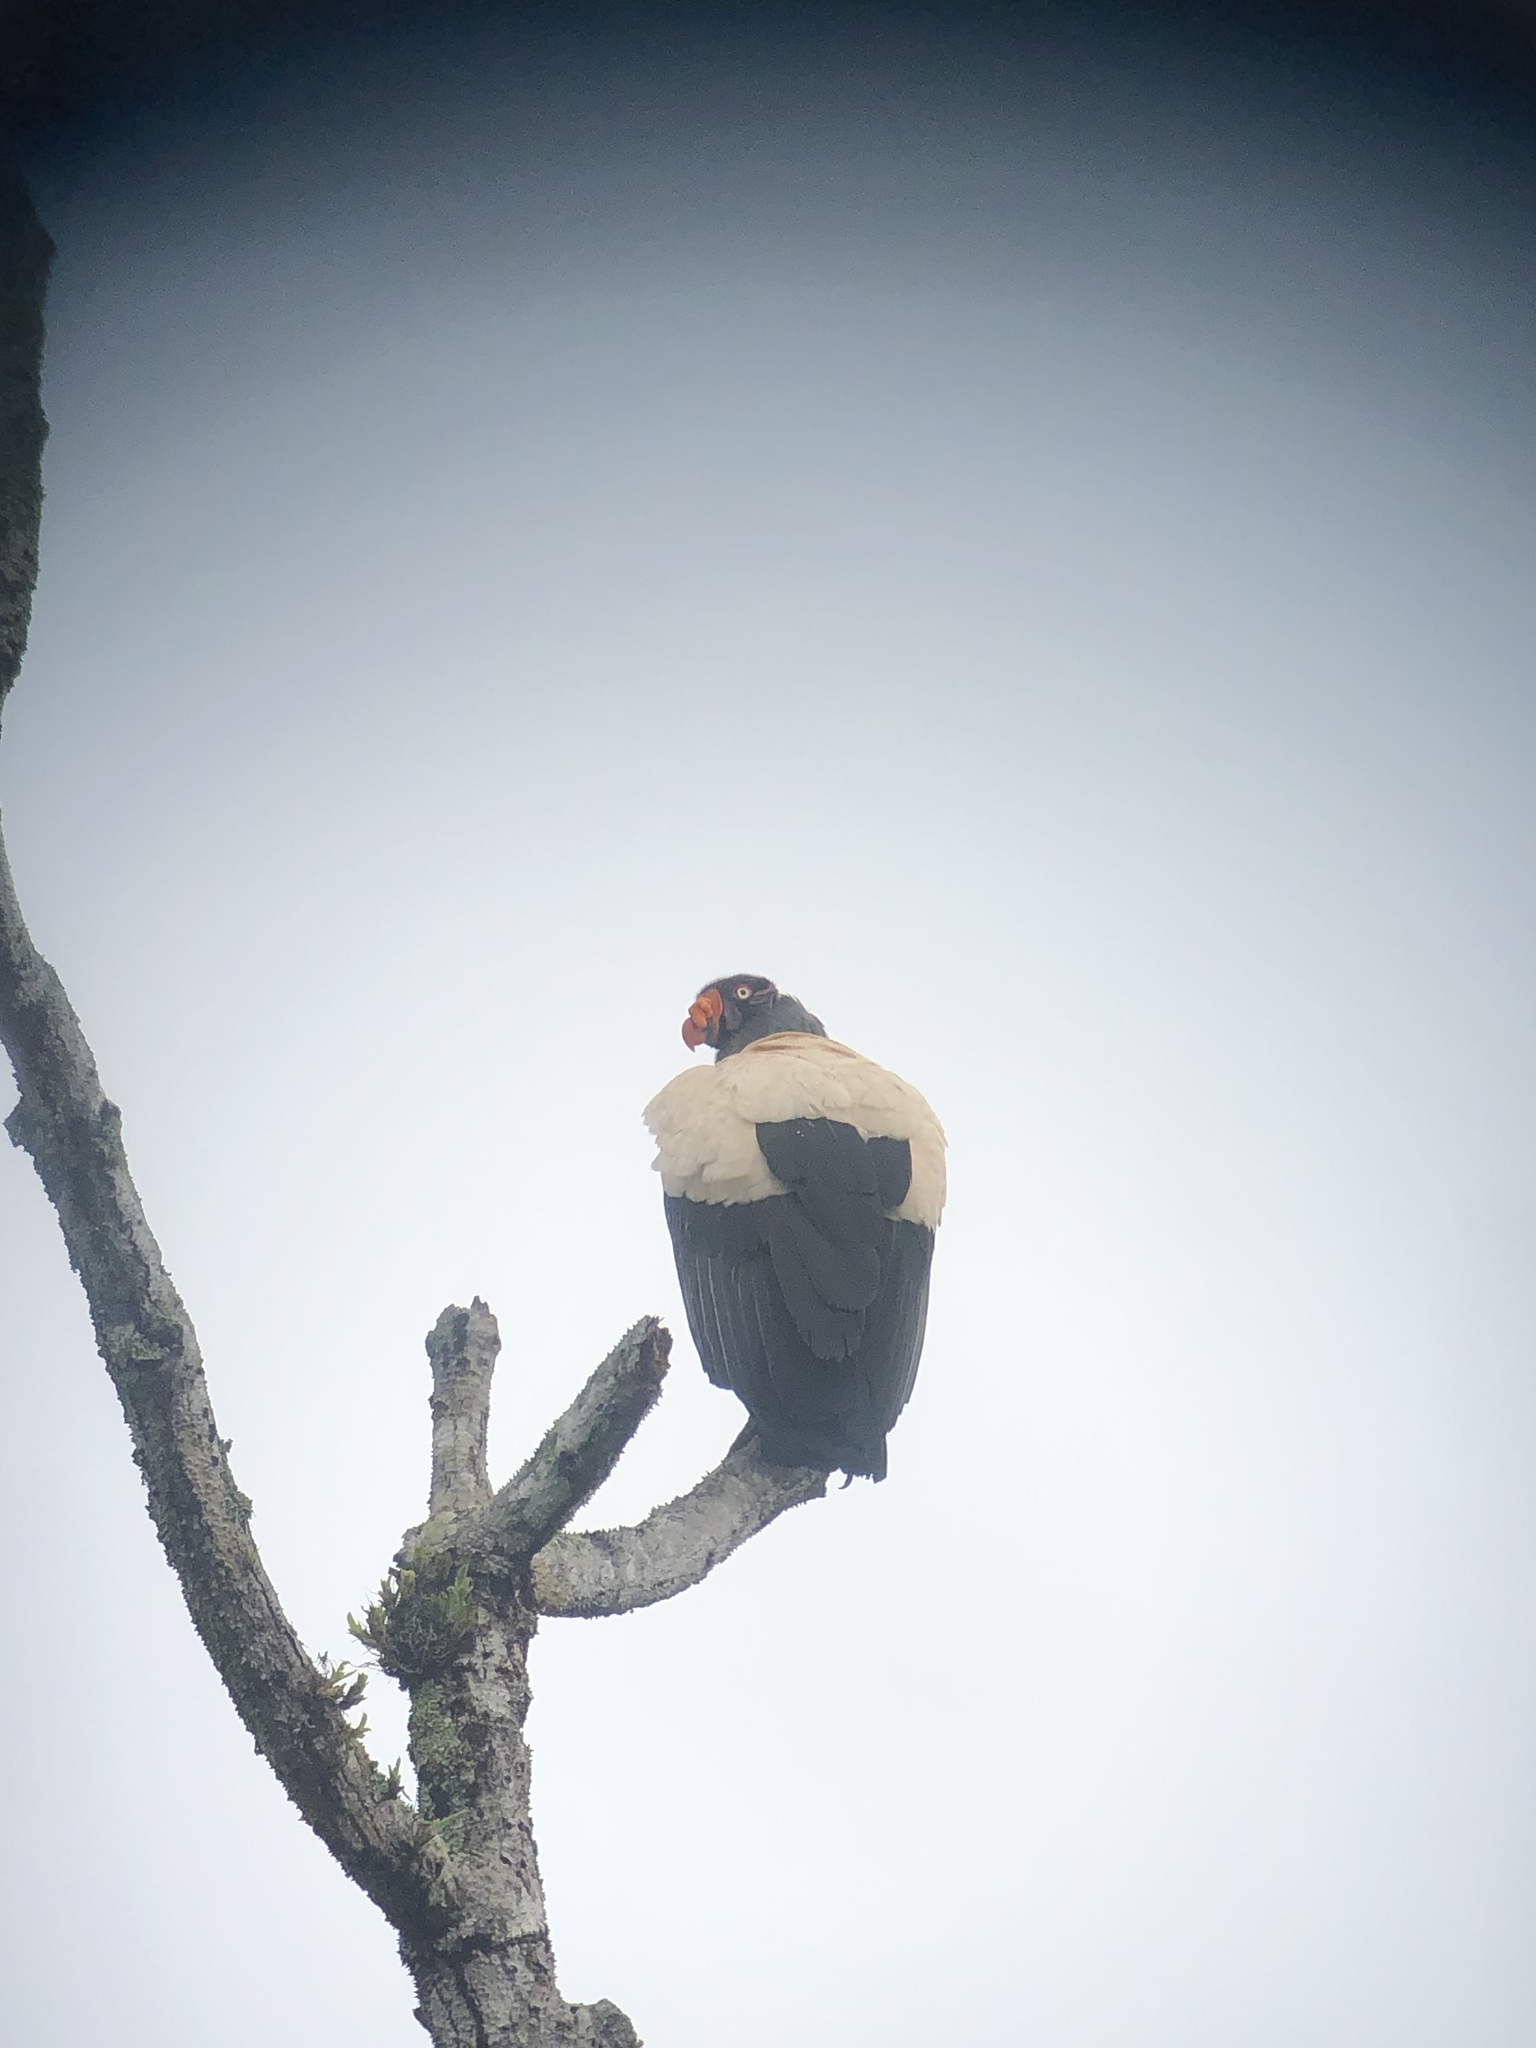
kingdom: Animalia
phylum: Chordata
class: Aves
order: Accipitriformes
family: Cathartidae
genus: Sarcoramphus
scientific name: Sarcoramphus papa
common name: King vulture
